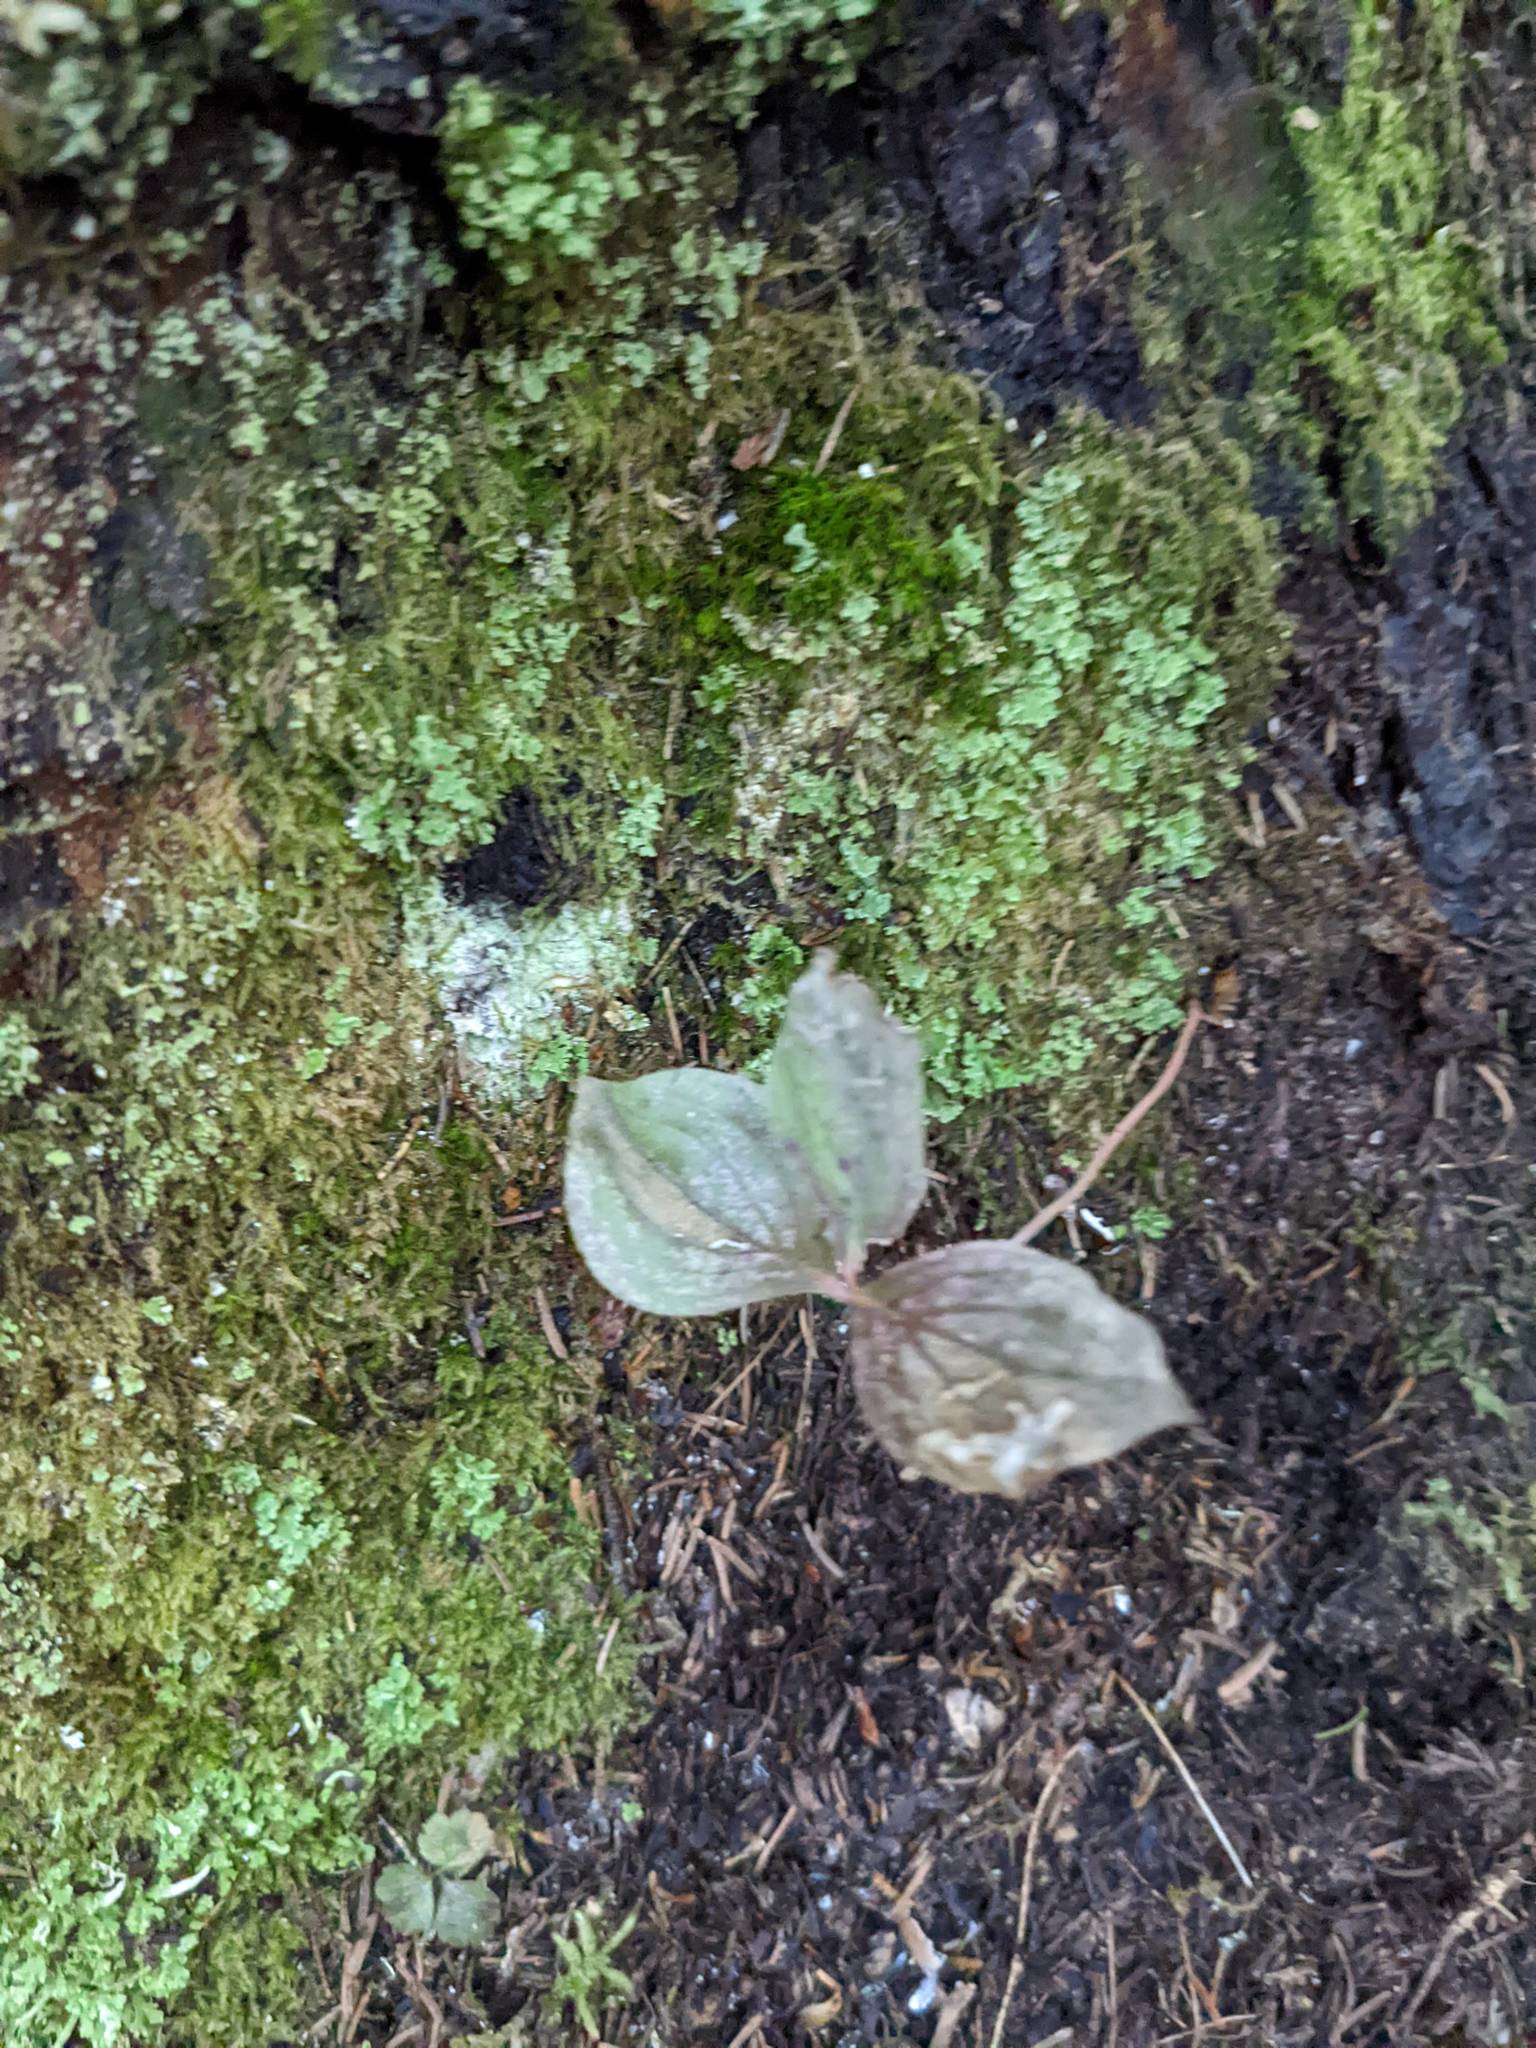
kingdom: Plantae
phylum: Tracheophyta
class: Magnoliopsida
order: Cornales
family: Cornaceae
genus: Cornus
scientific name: Cornus canadensis
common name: Creeping dogwood
